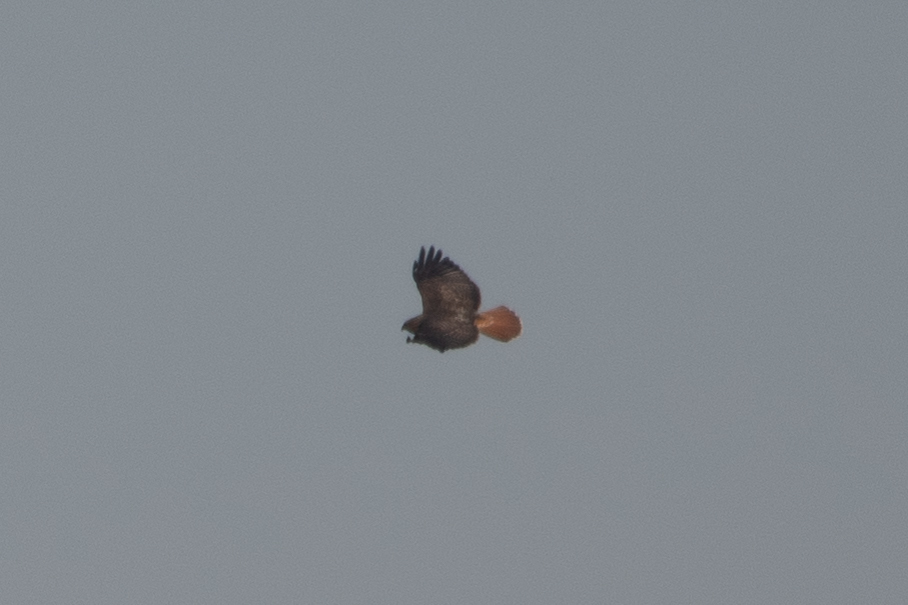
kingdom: Animalia
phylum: Chordata
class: Aves
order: Accipitriformes
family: Accipitridae
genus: Buteo
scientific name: Buteo jamaicensis
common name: Red-tailed hawk
